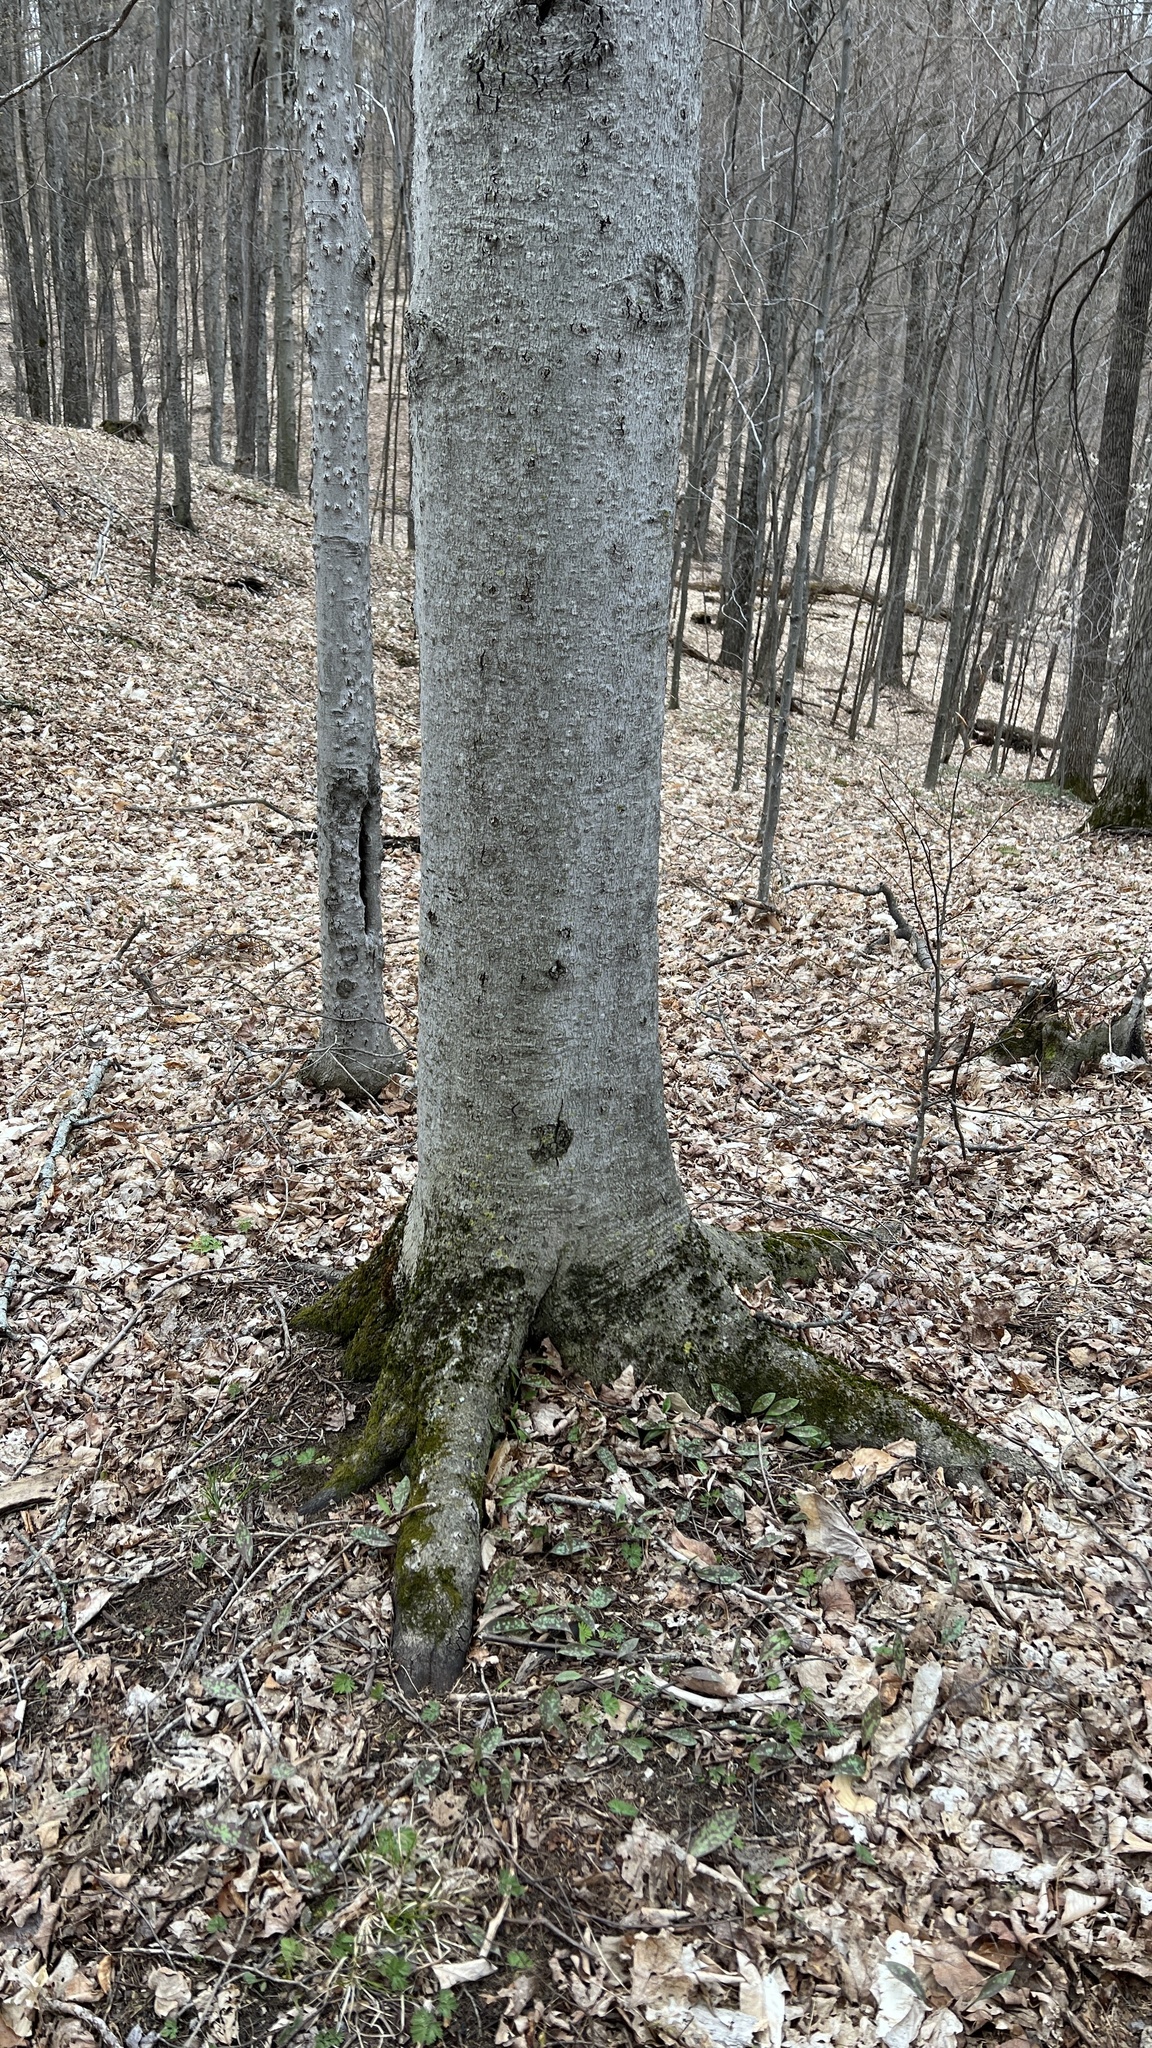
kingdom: Plantae
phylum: Tracheophyta
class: Magnoliopsida
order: Fagales
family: Fagaceae
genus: Fagus
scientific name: Fagus grandifolia
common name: American beech
